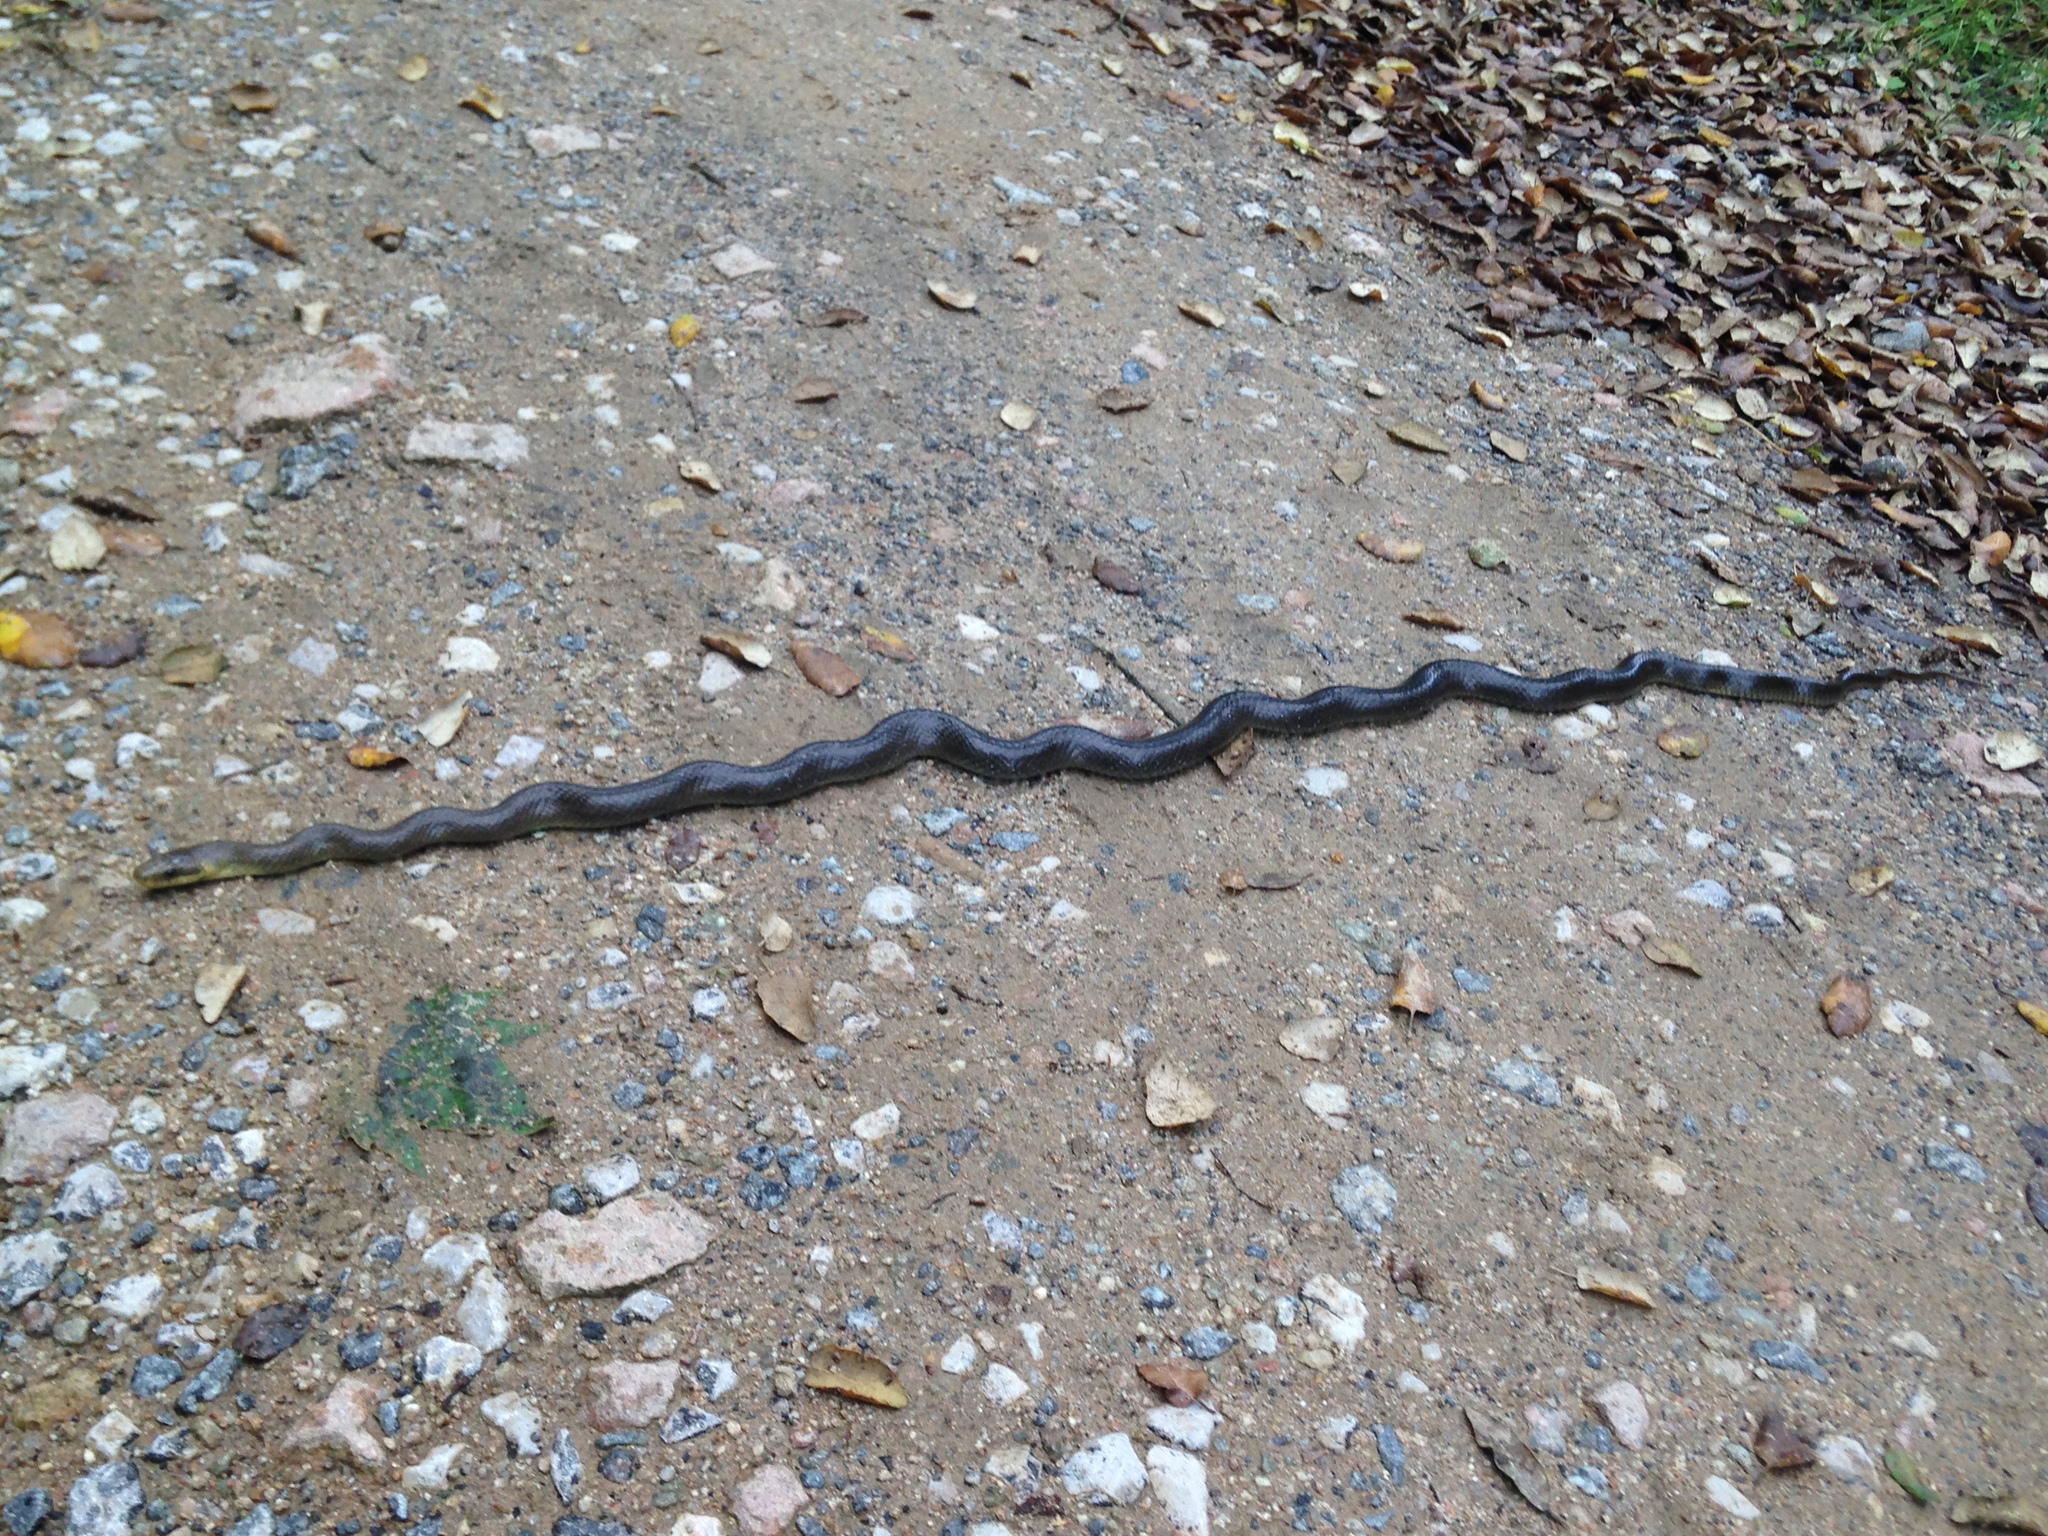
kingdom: Animalia
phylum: Chordata
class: Squamata
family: Colubridae
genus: Zamenis
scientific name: Zamenis longissimus
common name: Aesculapean snake
